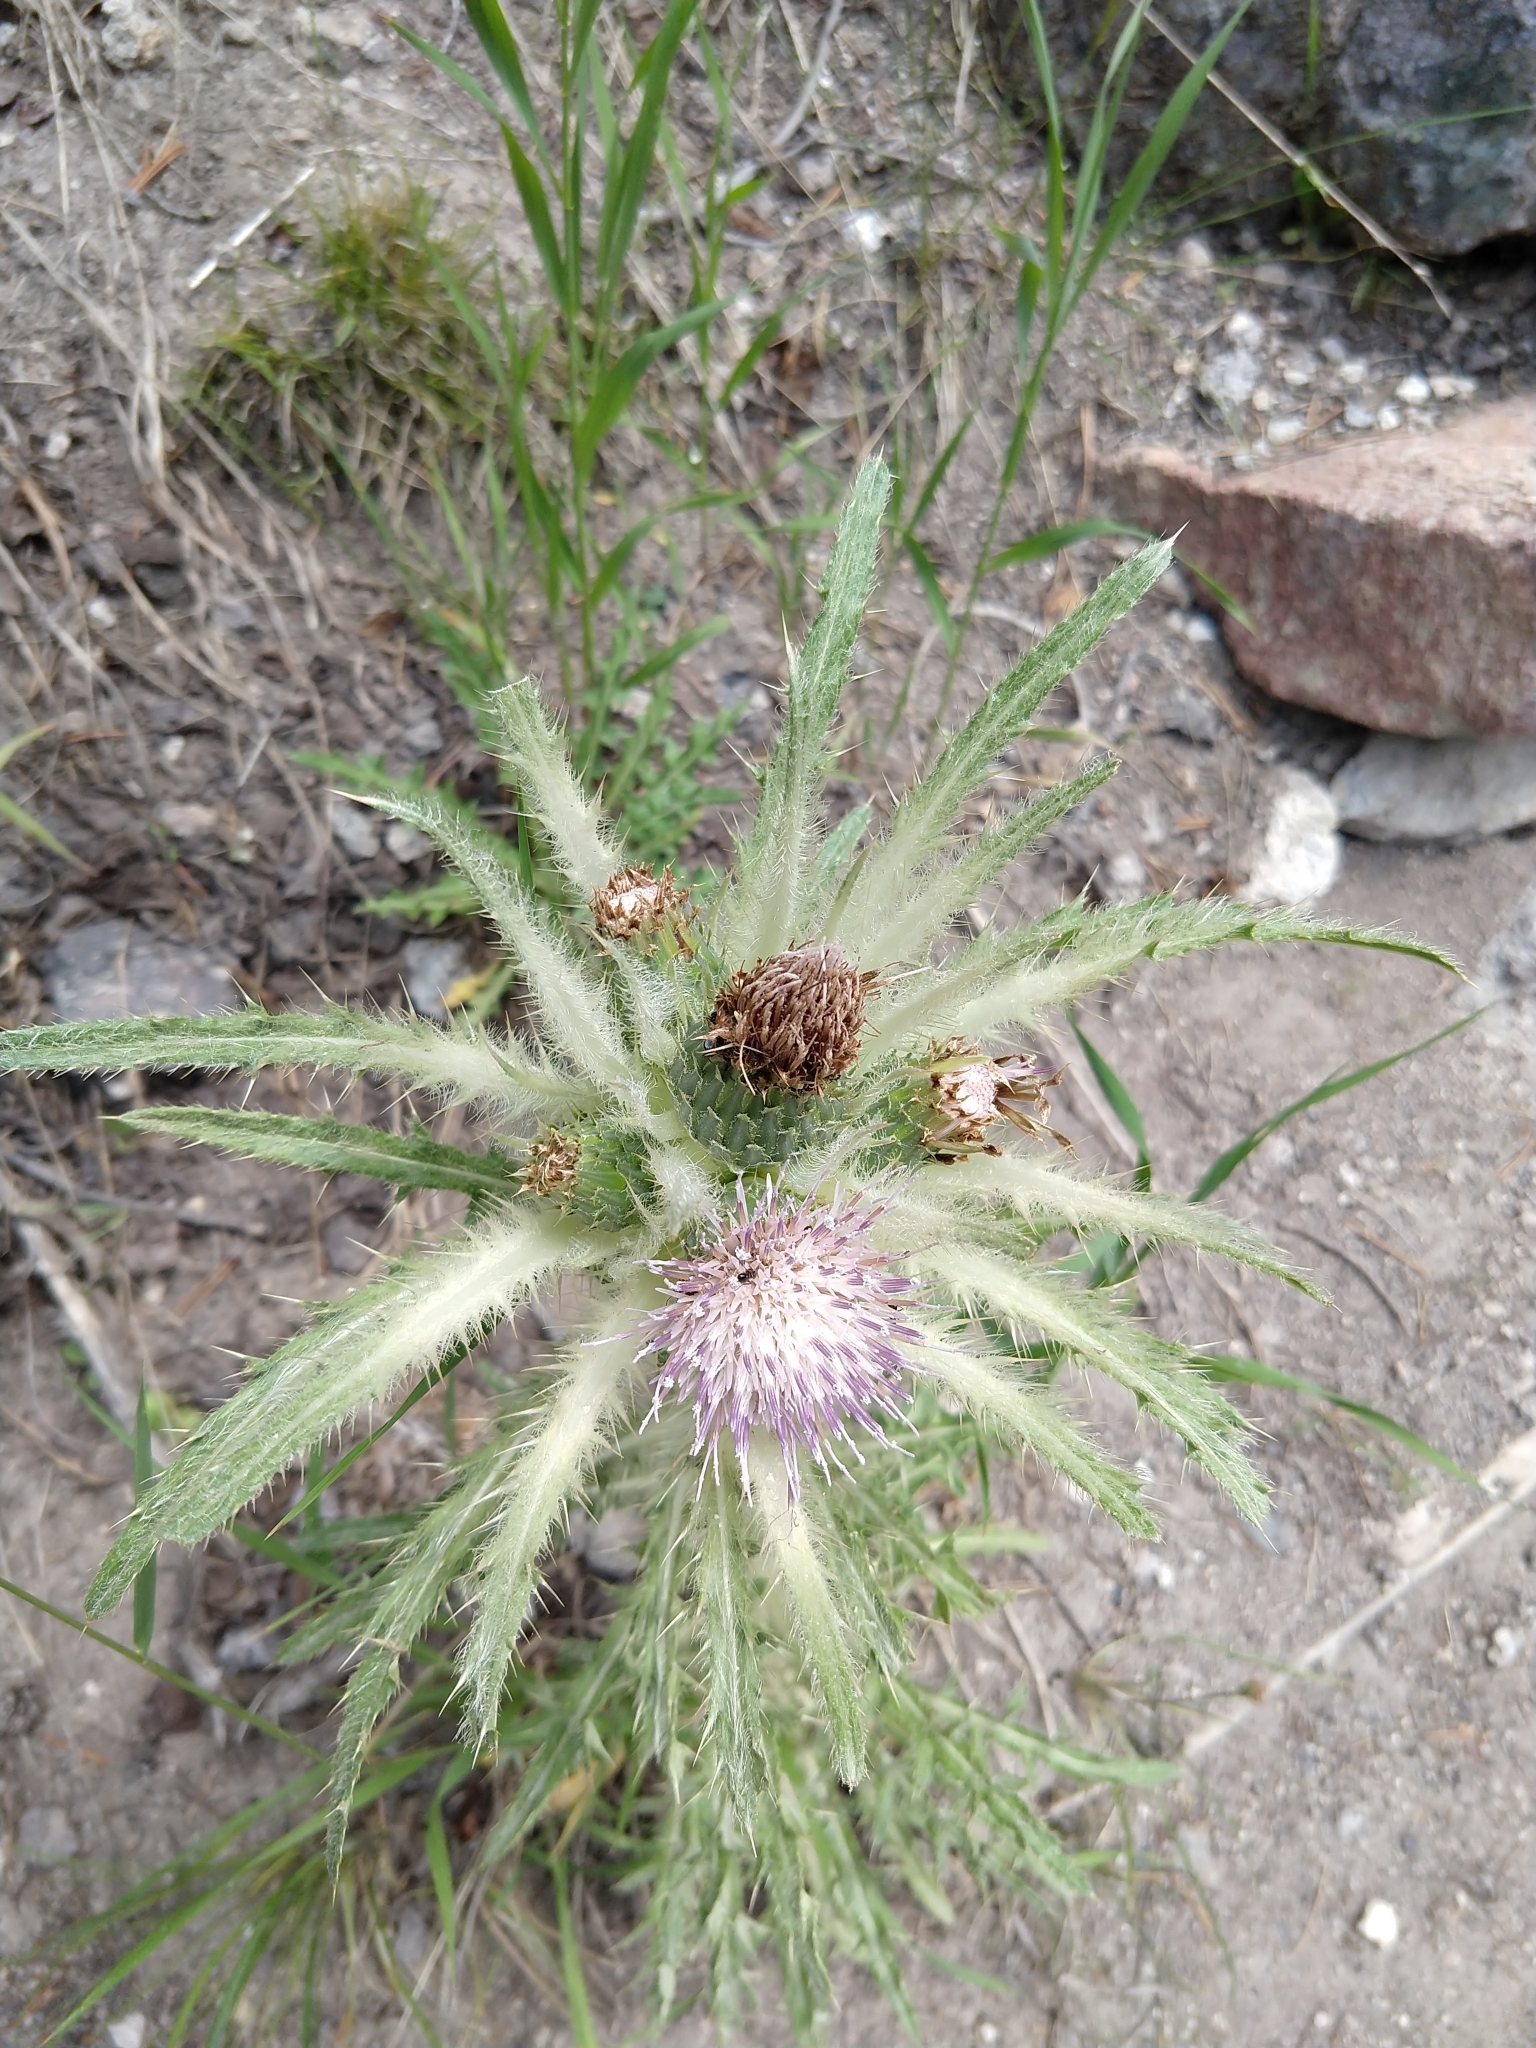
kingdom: Plantae
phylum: Tracheophyta
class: Magnoliopsida
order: Asterales
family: Asteraceae
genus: Cirsium
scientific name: Cirsium scariosum
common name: Meadow thistle
